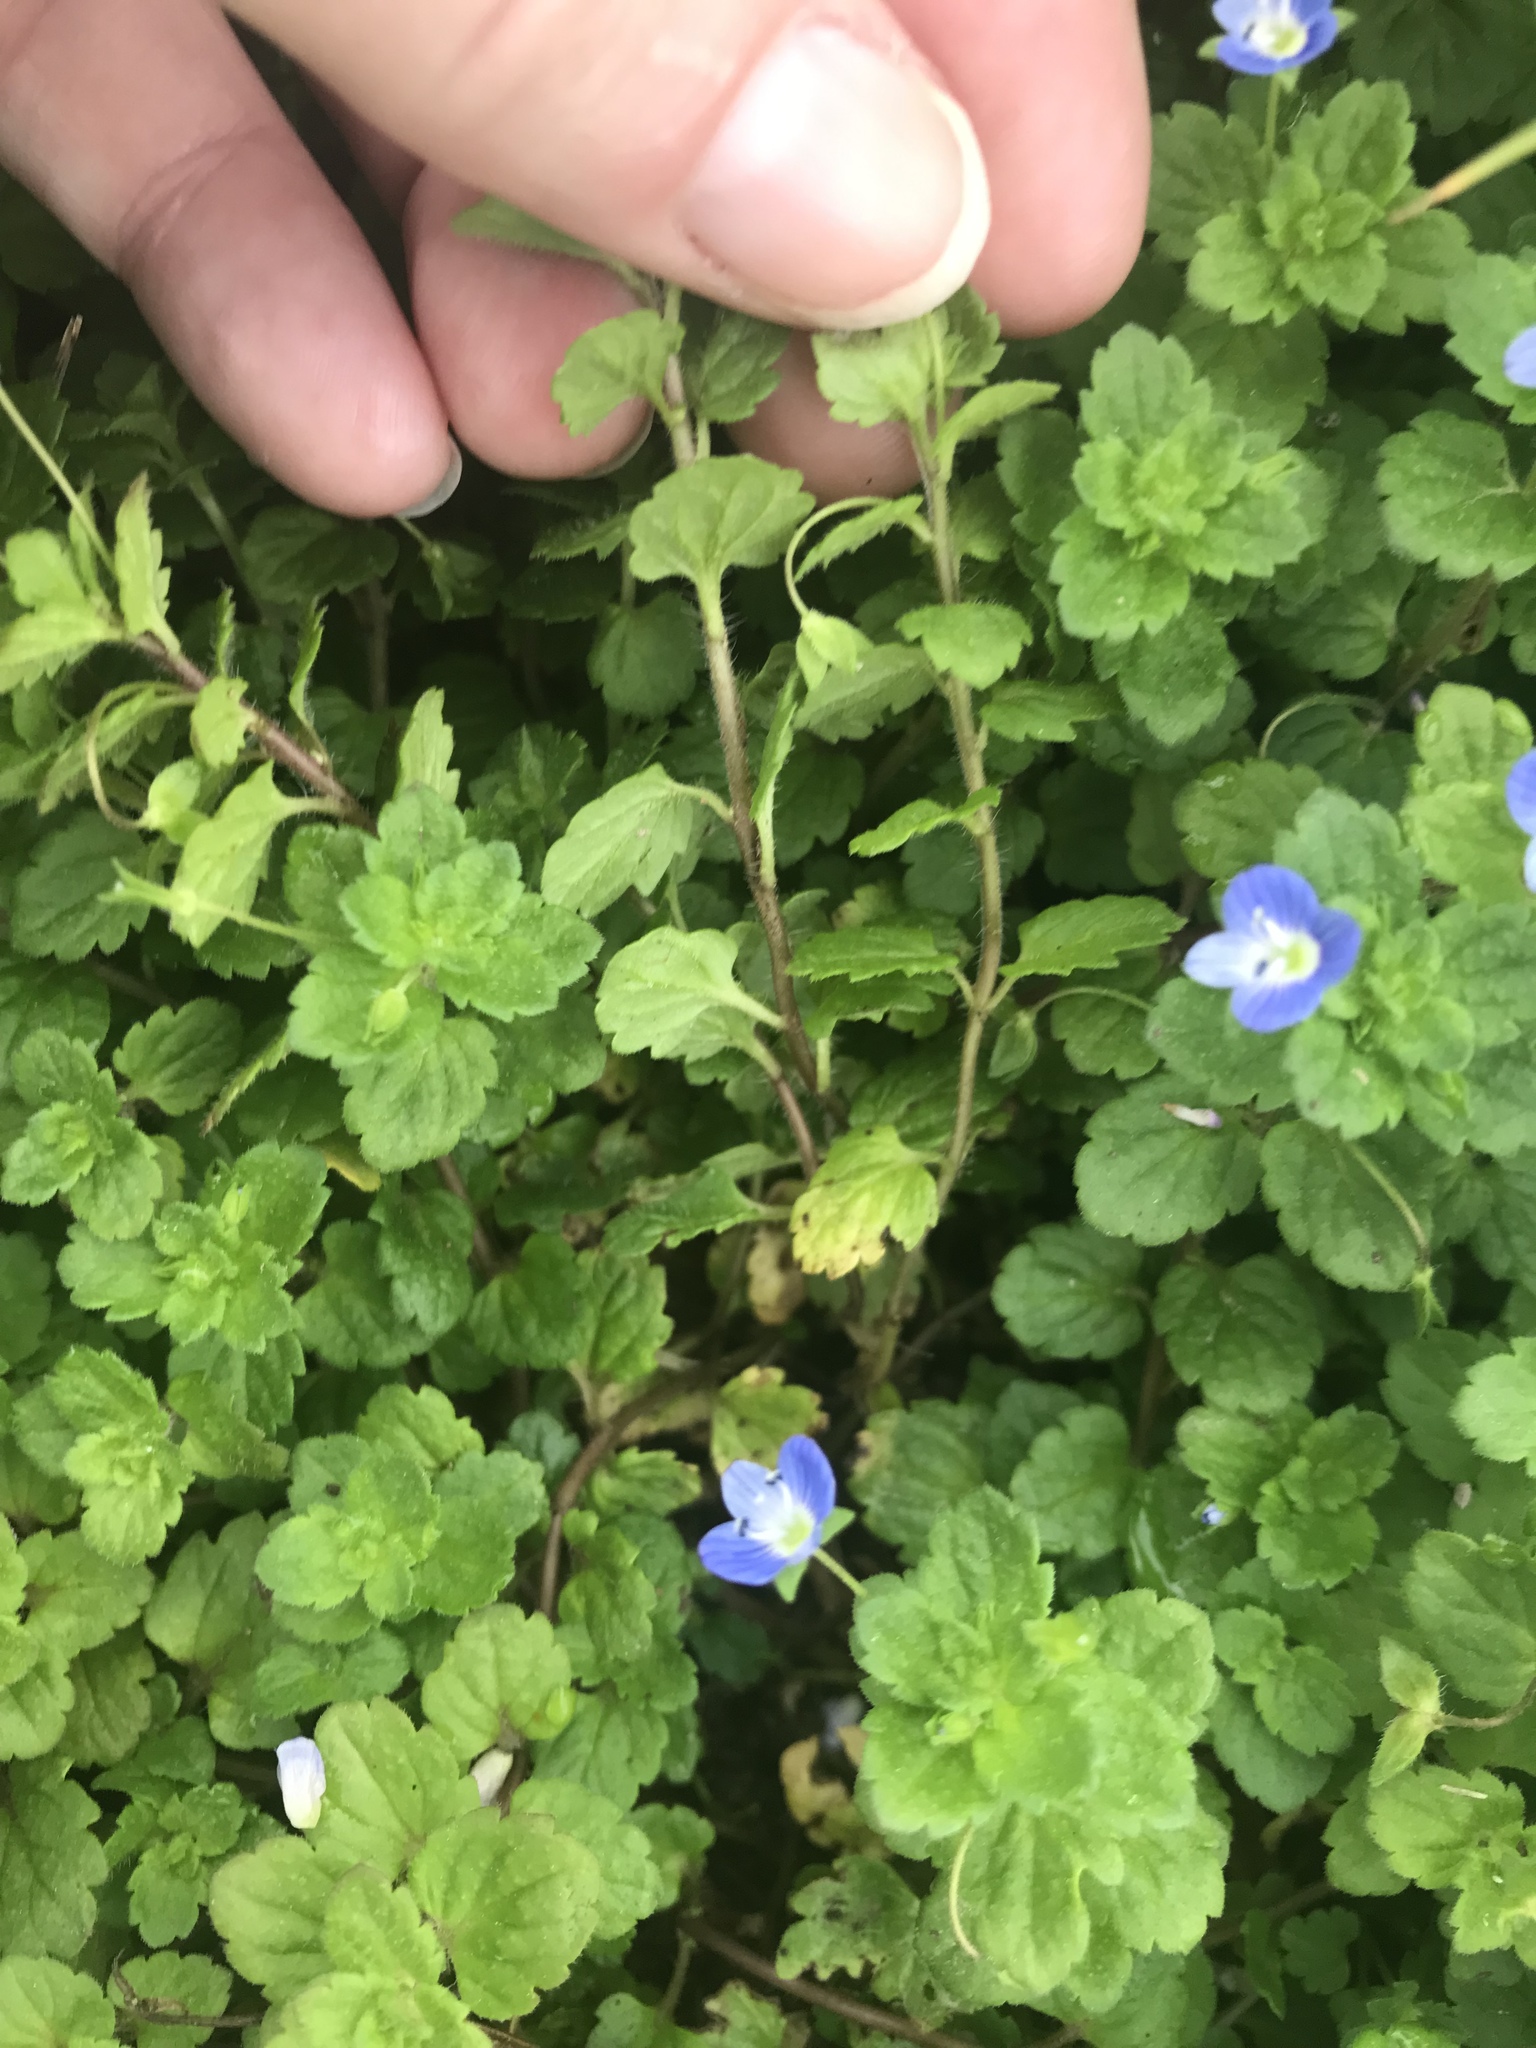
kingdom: Plantae
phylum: Tracheophyta
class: Magnoliopsida
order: Lamiales
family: Plantaginaceae
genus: Veronica
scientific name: Veronica persica
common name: Common field-speedwell
